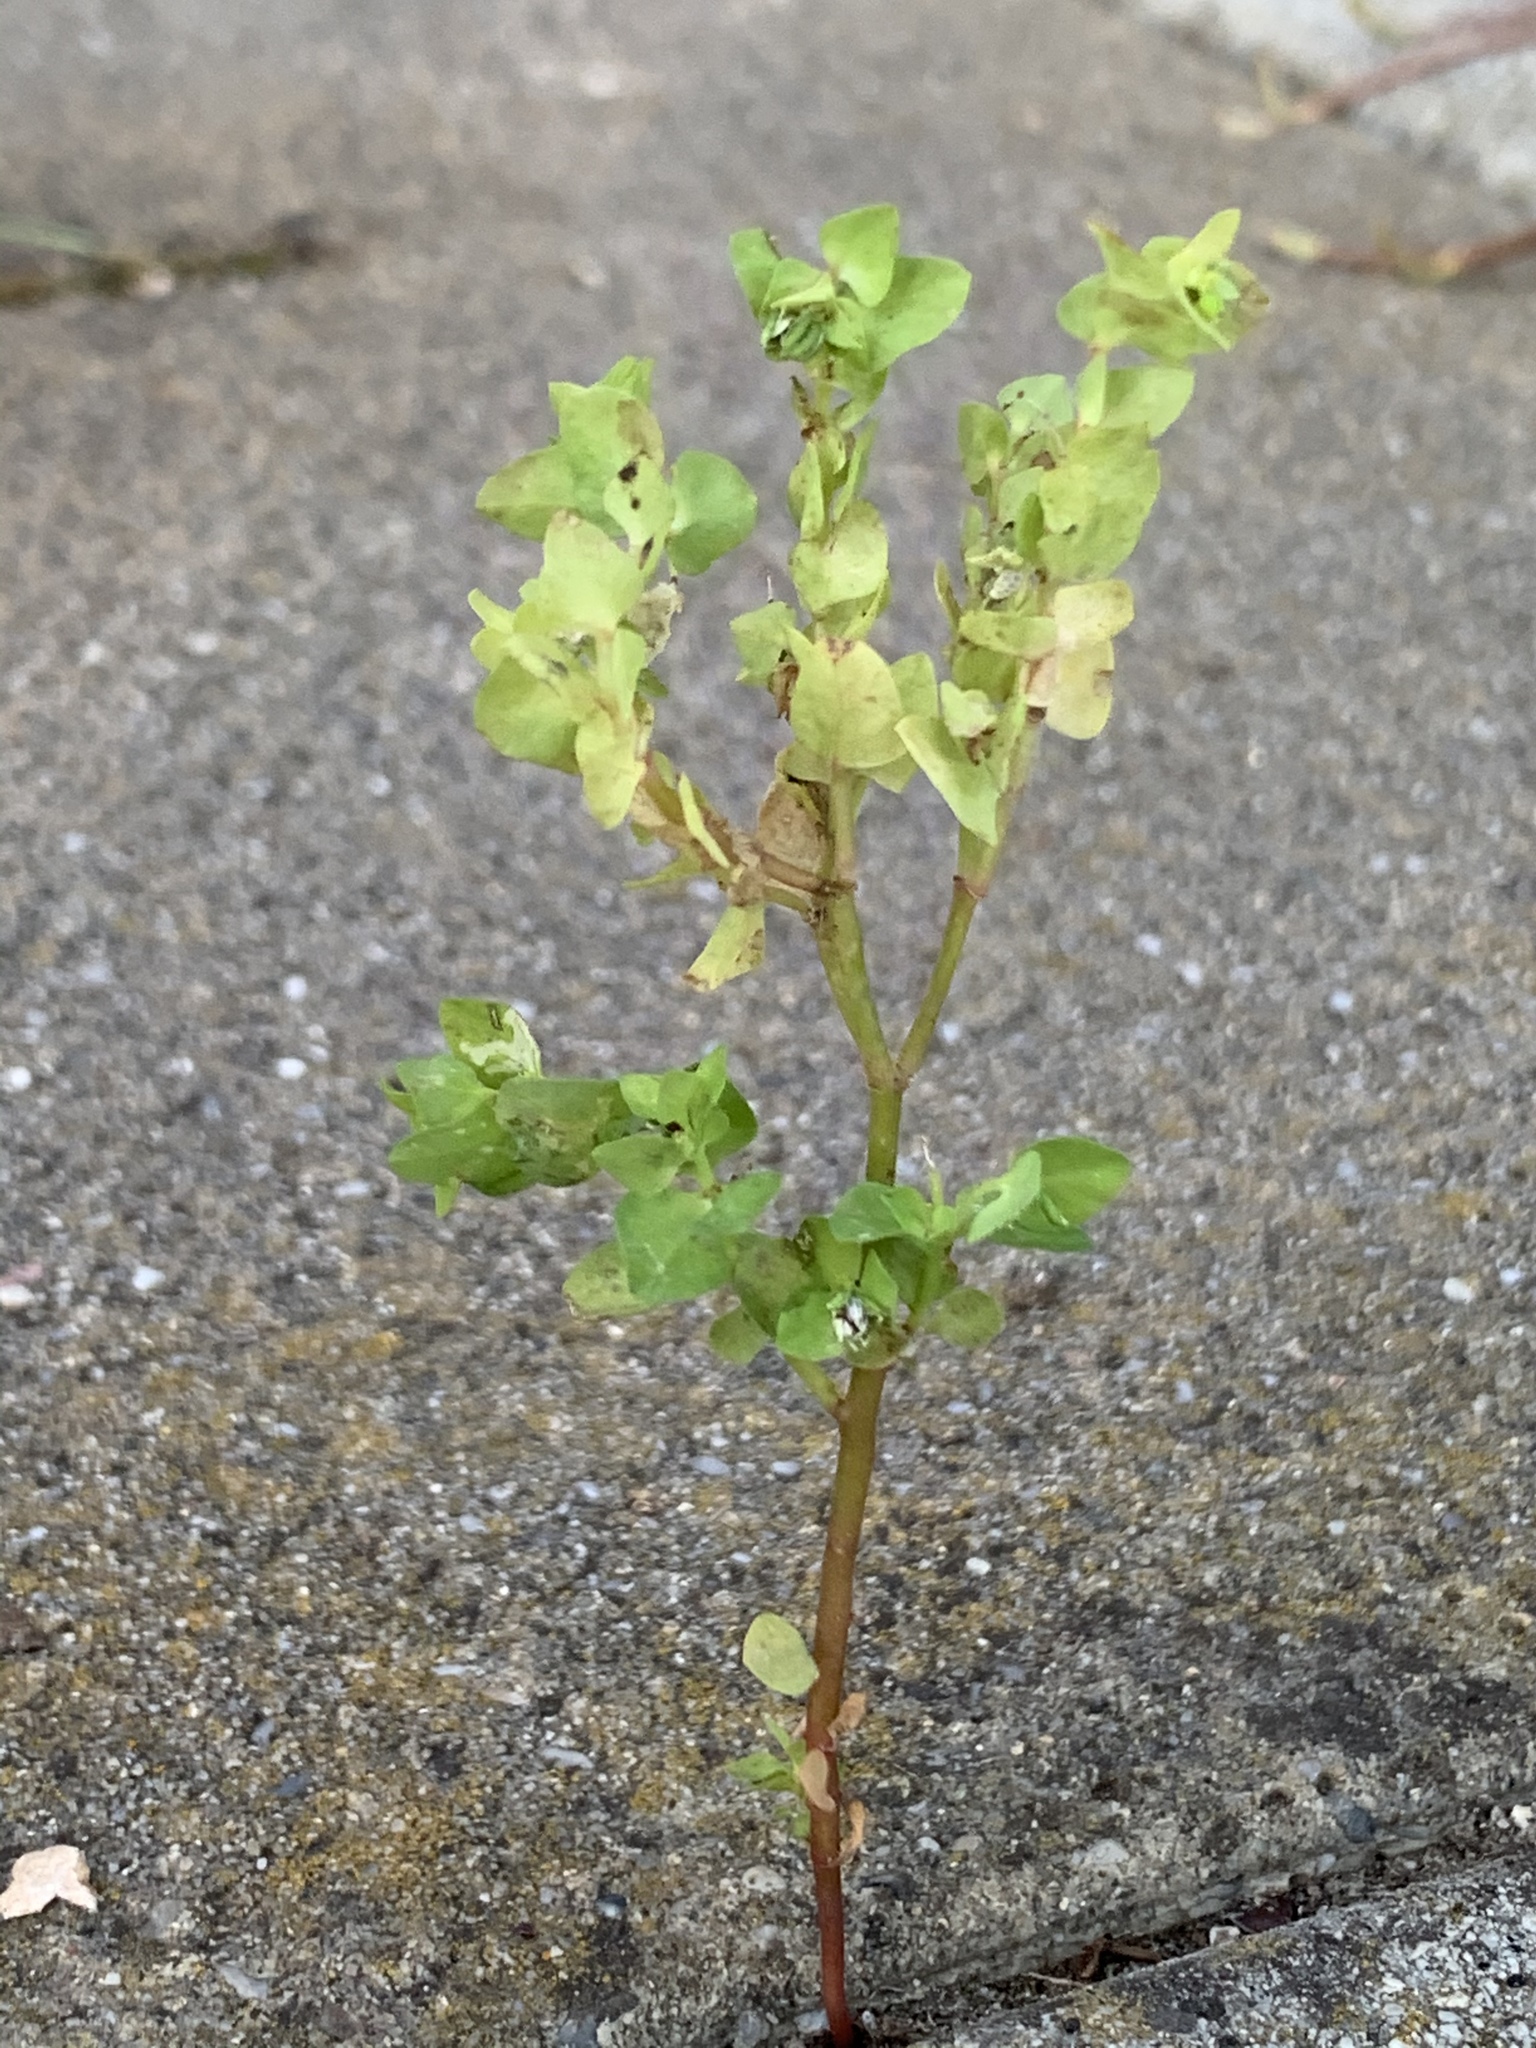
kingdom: Plantae
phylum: Tracheophyta
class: Magnoliopsida
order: Malpighiales
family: Euphorbiaceae
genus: Euphorbia
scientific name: Euphorbia peplus
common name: Petty spurge
